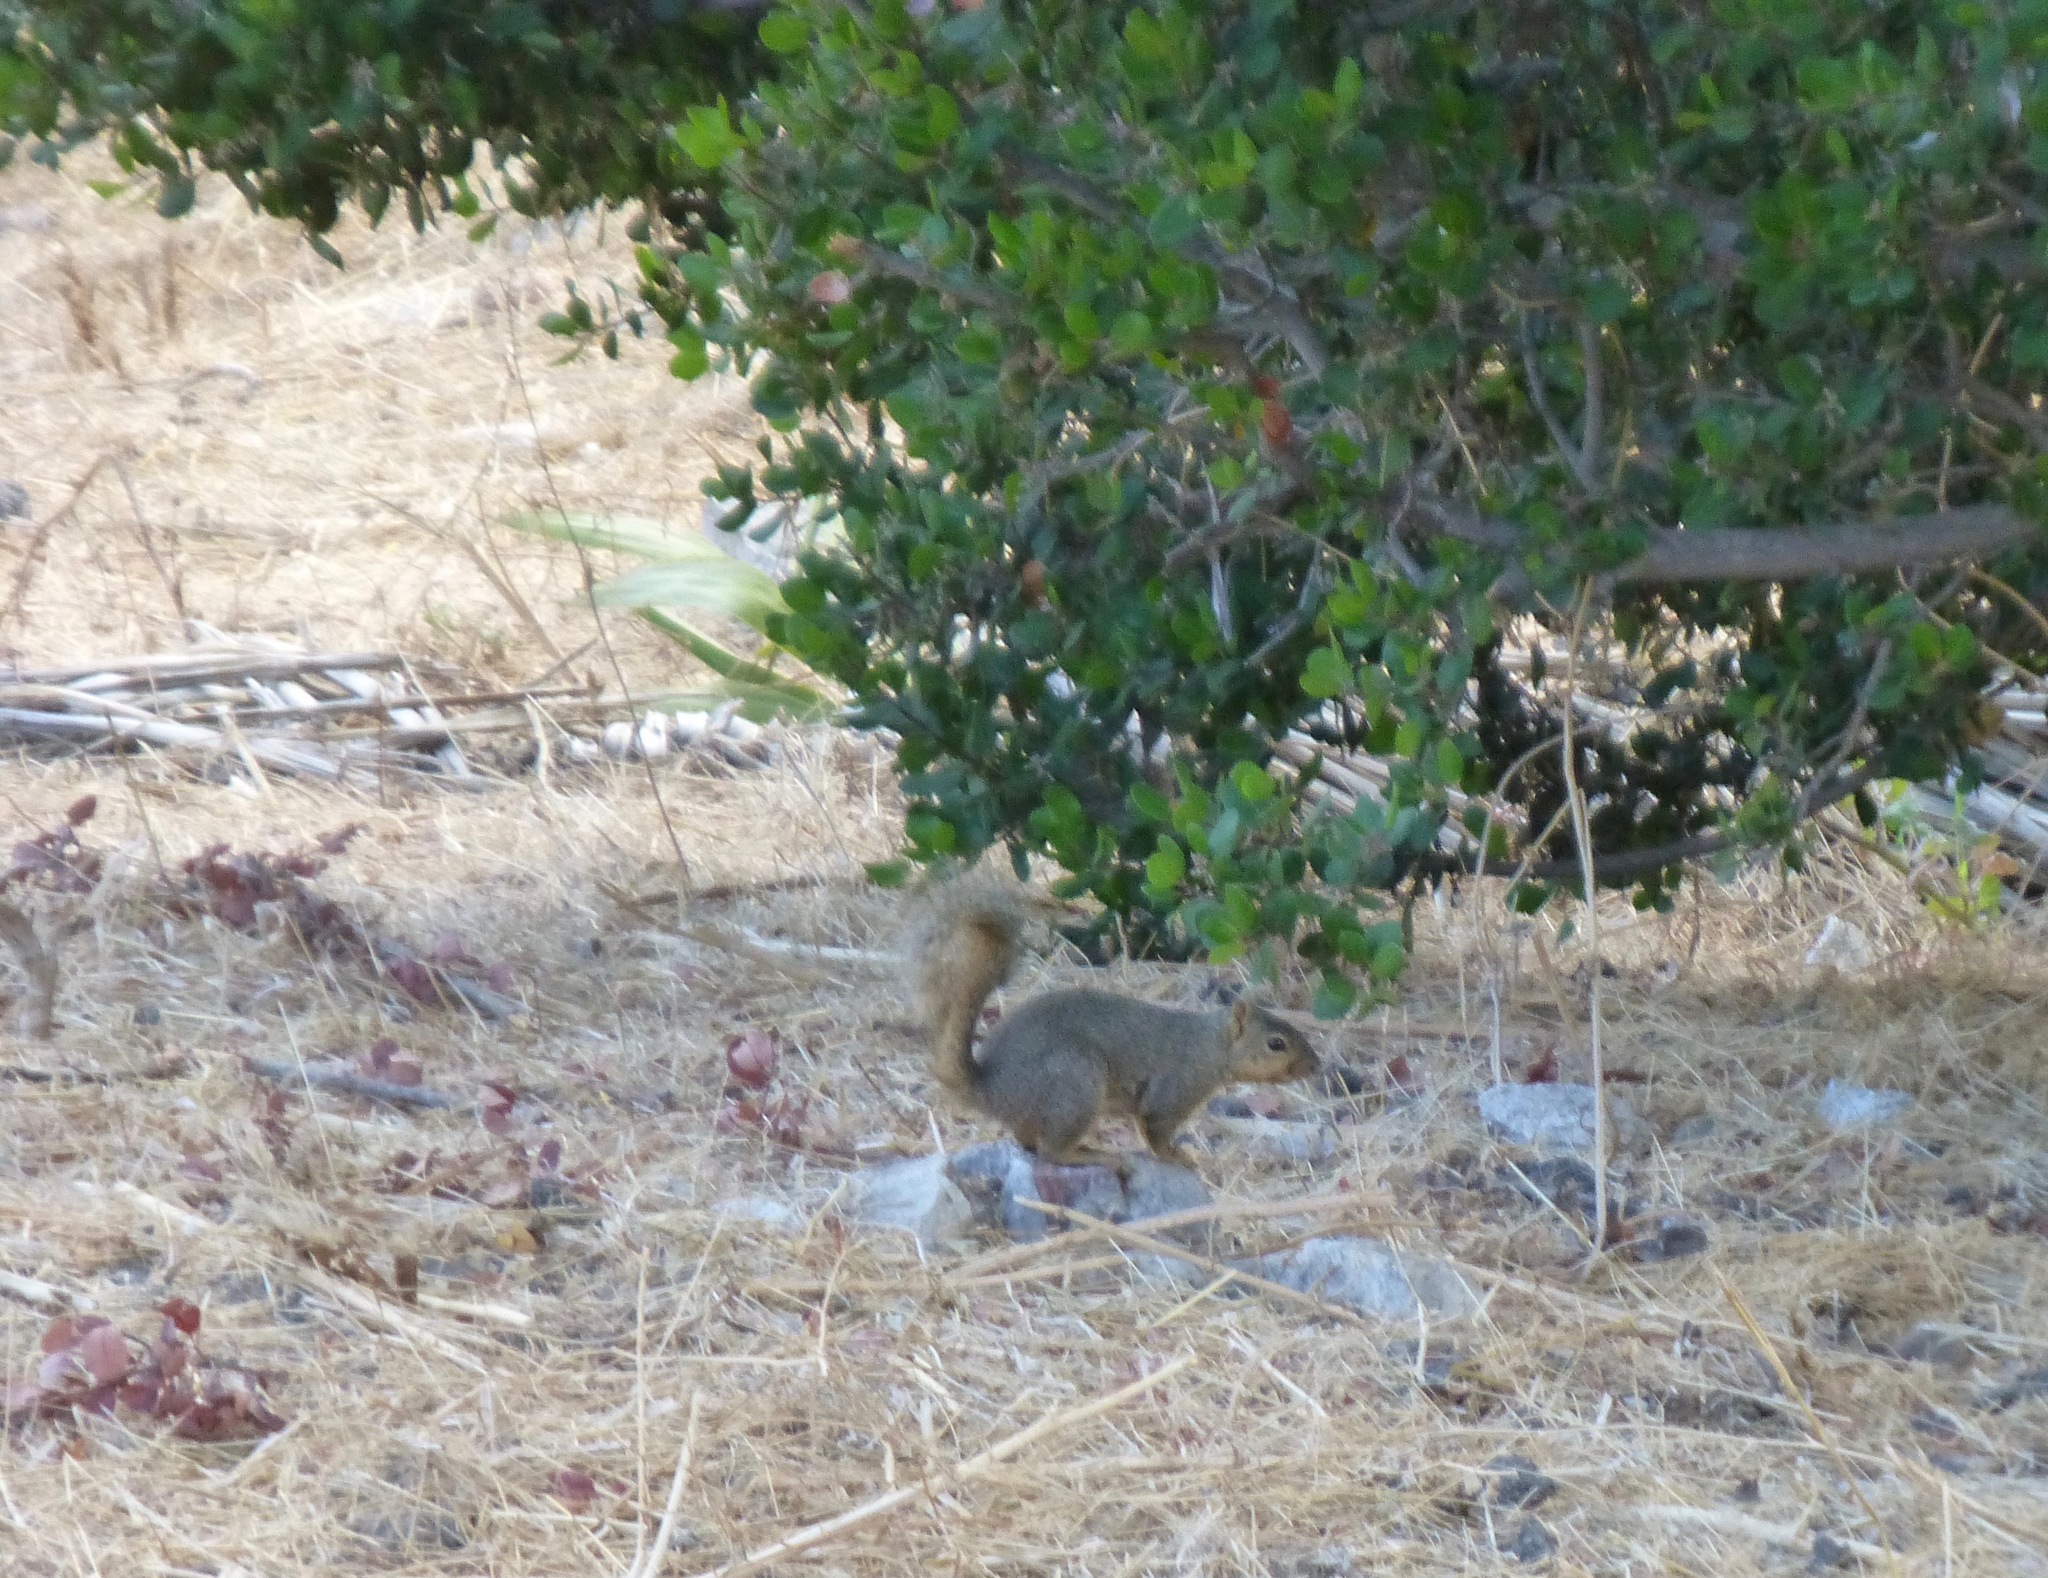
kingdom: Animalia
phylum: Chordata
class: Mammalia
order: Rodentia
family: Sciuridae
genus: Sciurus
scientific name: Sciurus niger
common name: Fox squirrel
